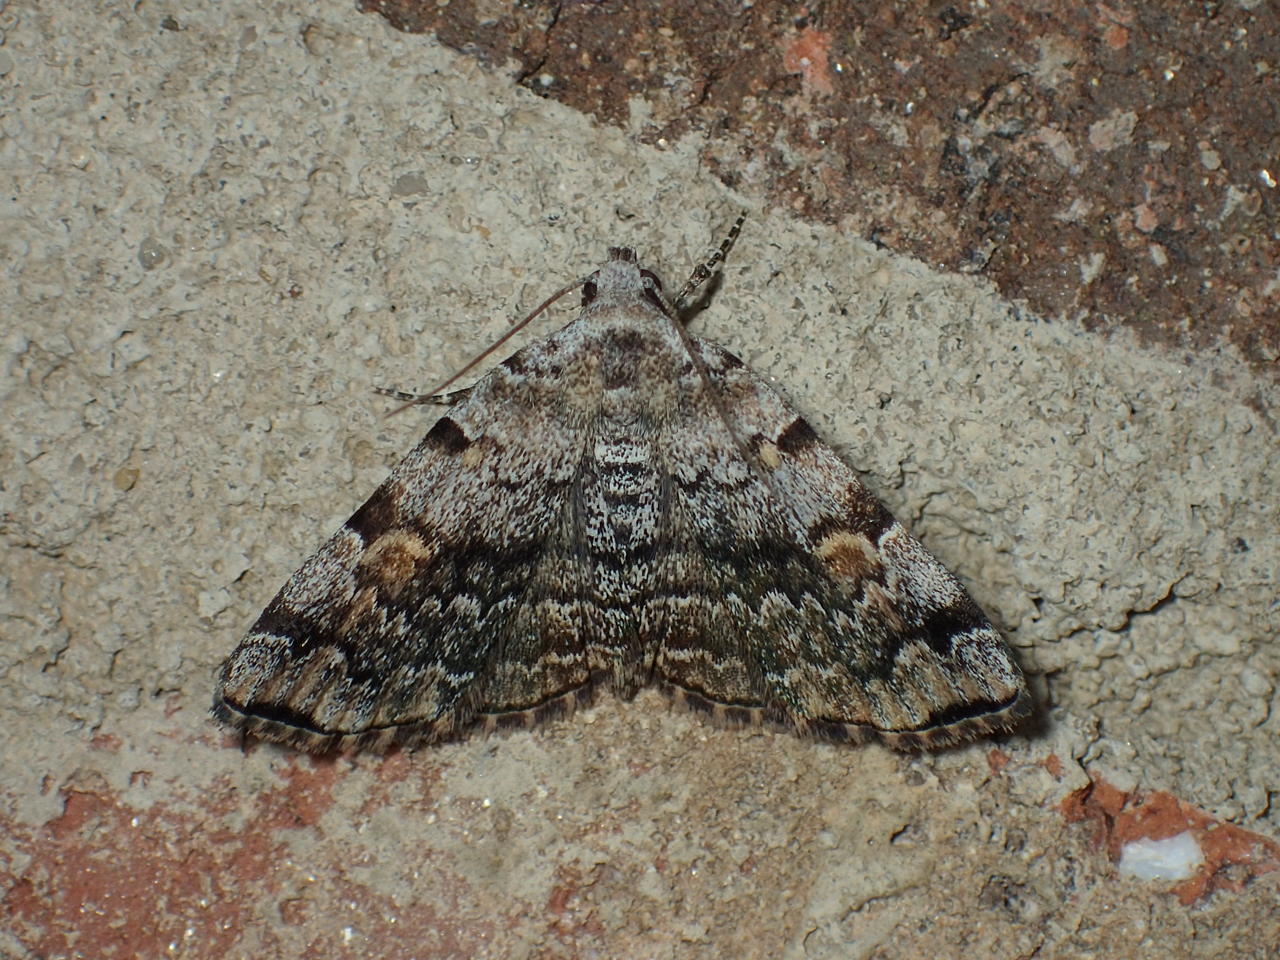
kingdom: Animalia
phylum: Arthropoda
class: Insecta
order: Lepidoptera
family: Erebidae
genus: Idia
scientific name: Idia americalis
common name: American idia moth
